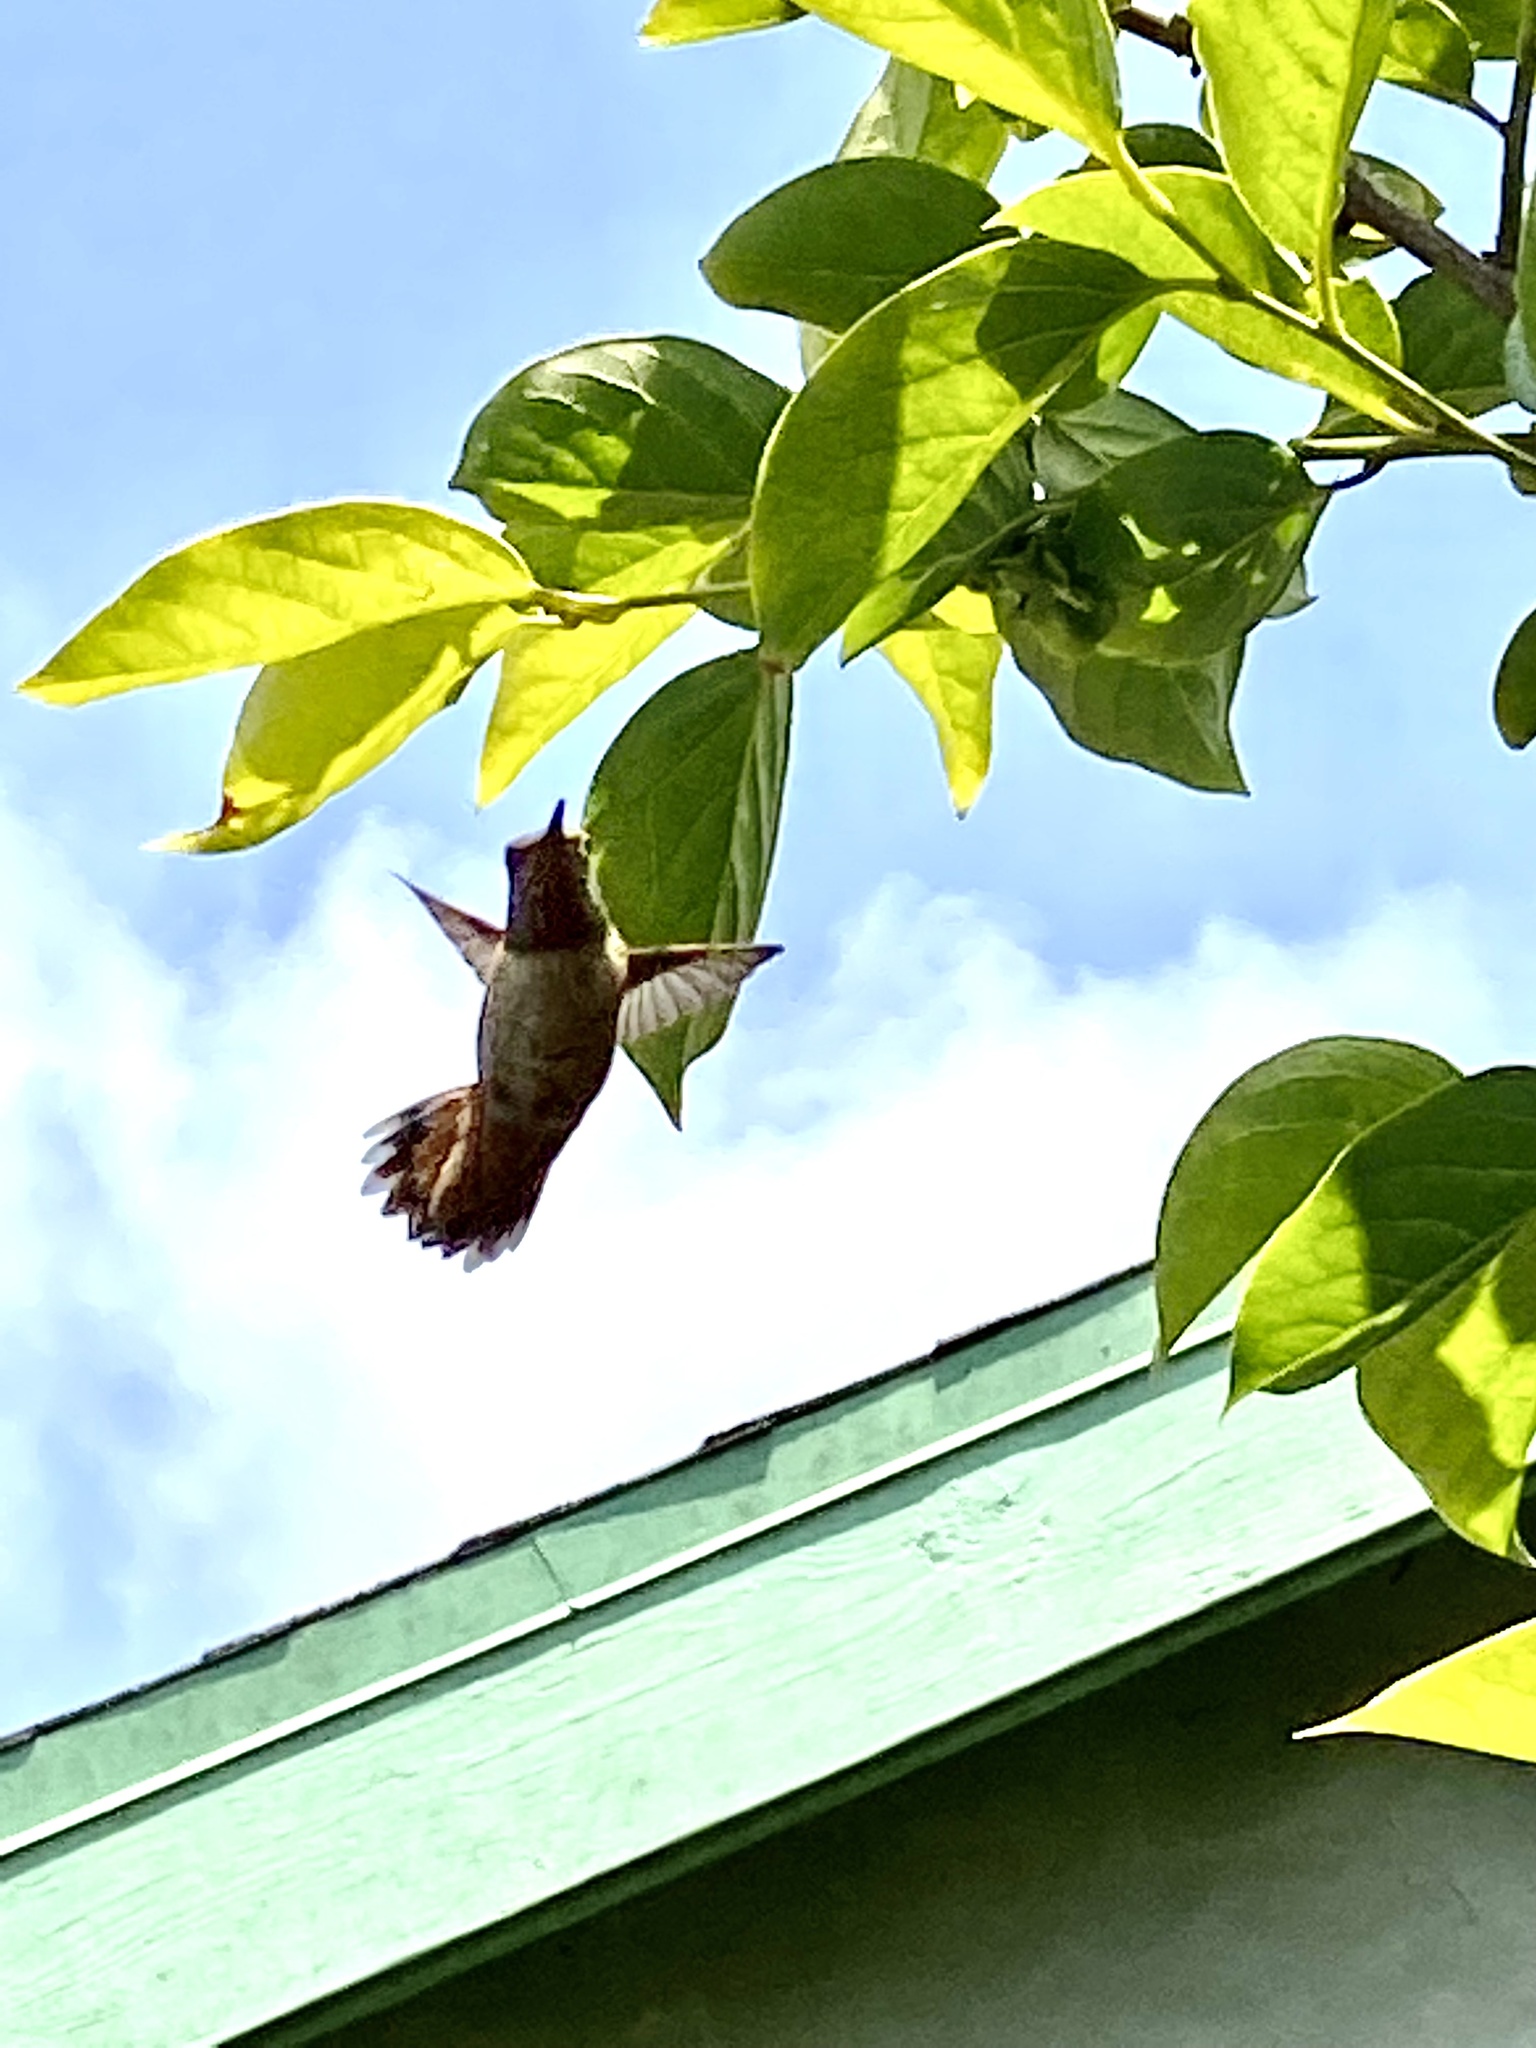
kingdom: Animalia
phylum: Chordata
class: Aves
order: Apodiformes
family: Trochilidae
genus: Selasphorus
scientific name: Selasphorus
